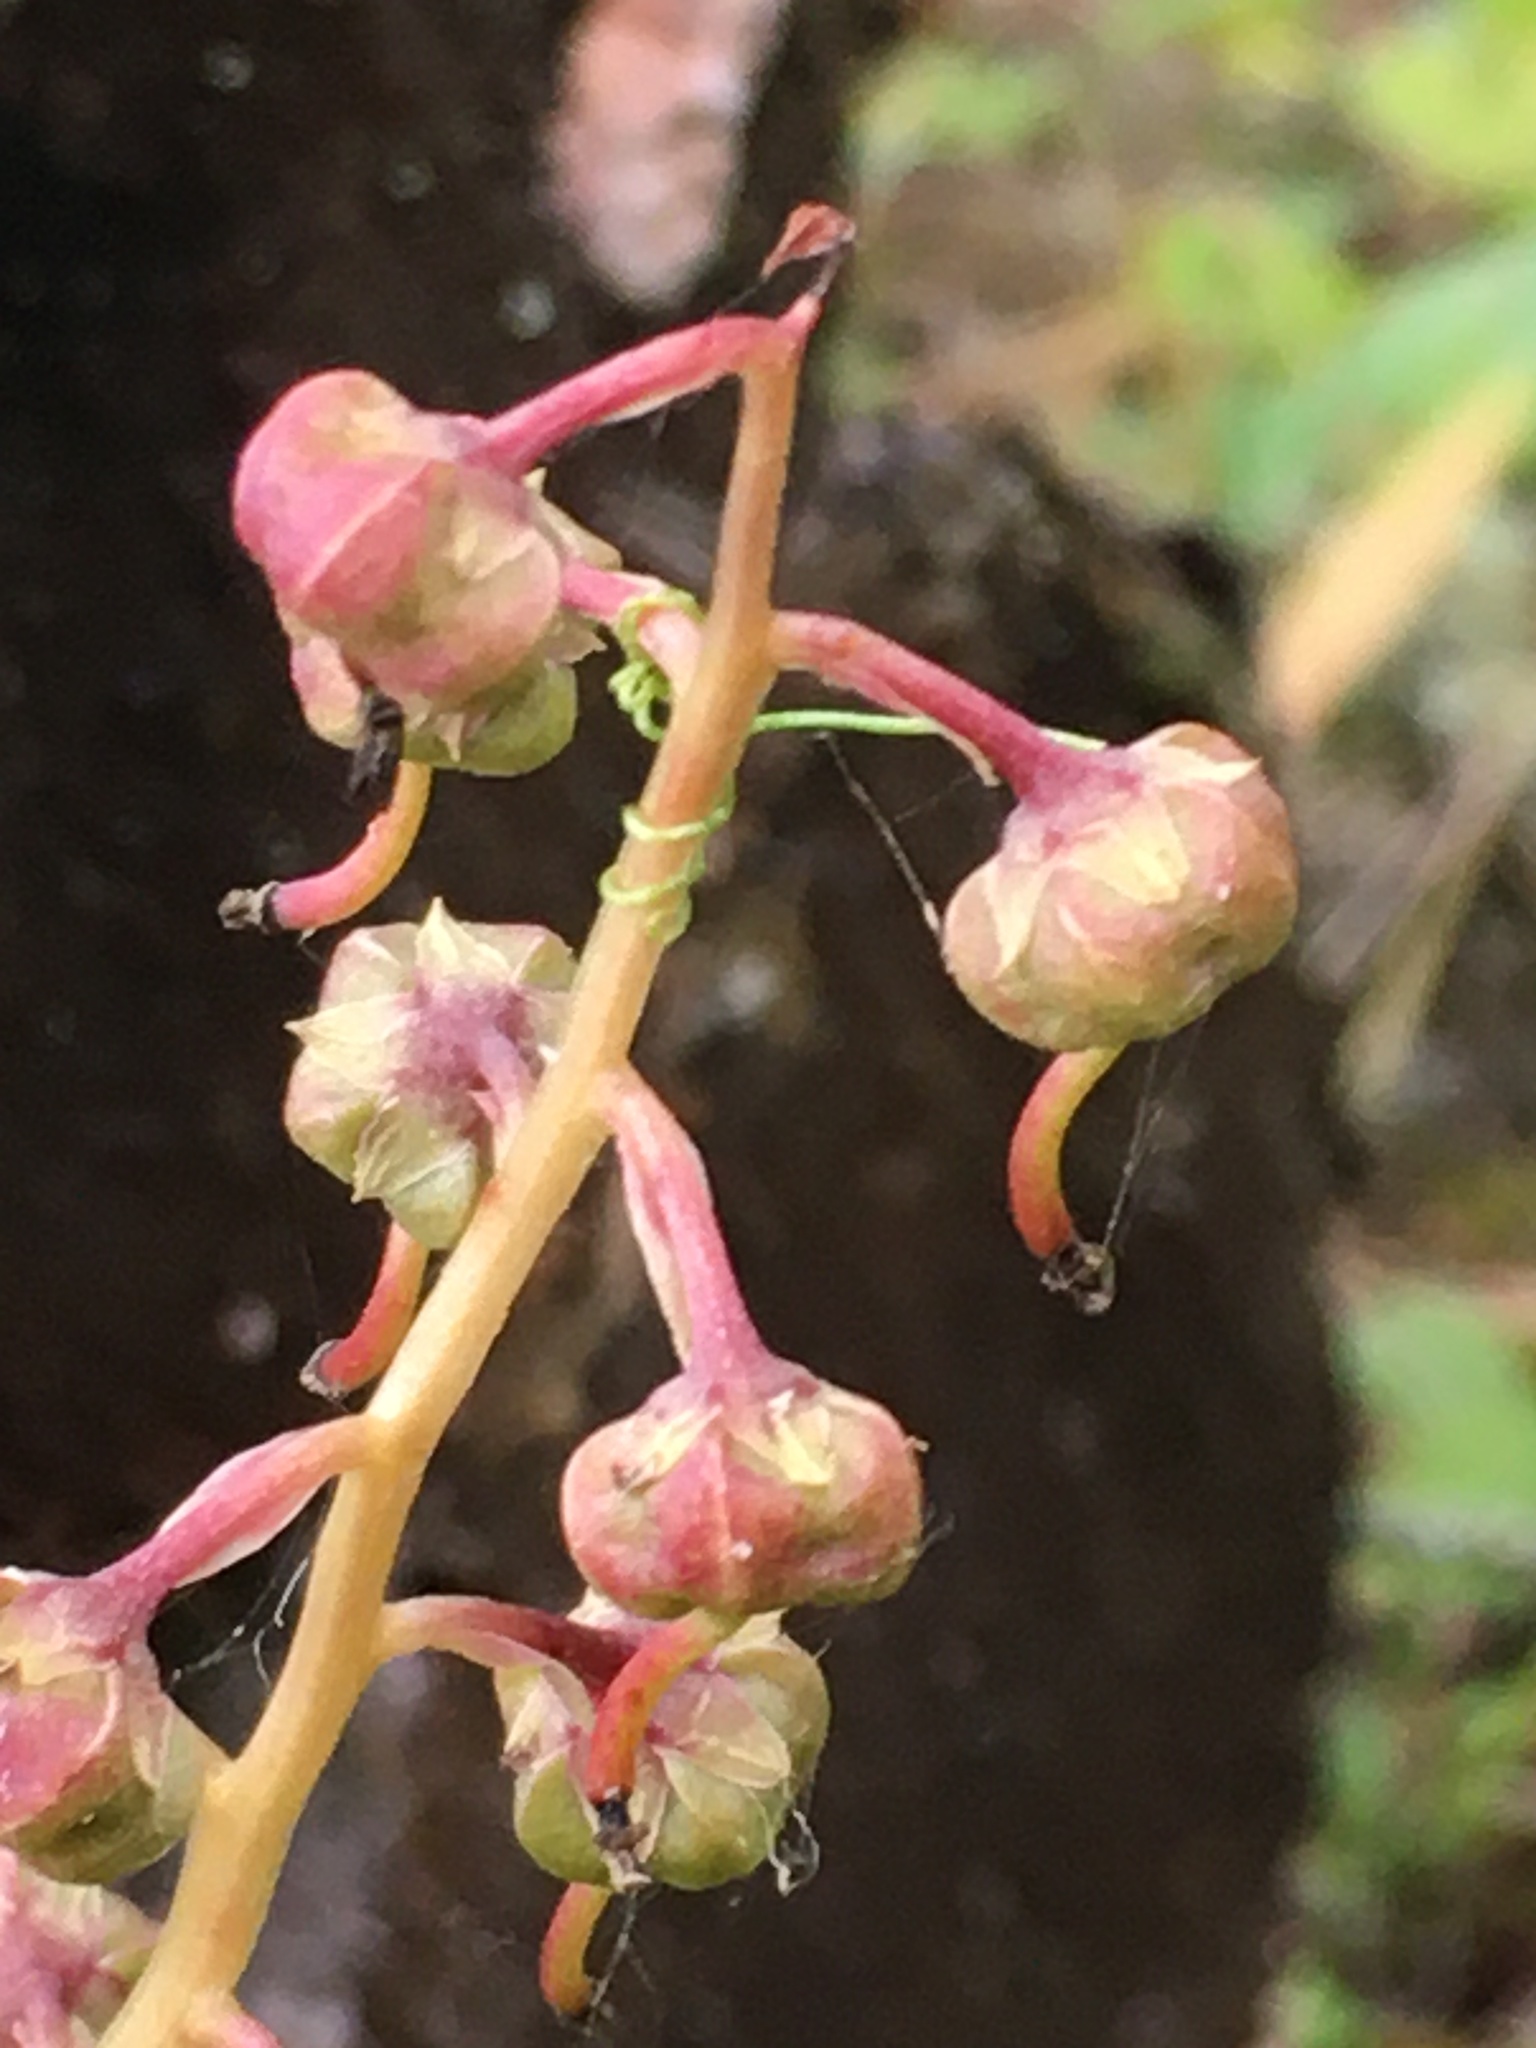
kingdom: Plantae
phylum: Tracheophyta
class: Magnoliopsida
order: Ericales
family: Ericaceae
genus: Pyrola
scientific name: Pyrola asarifolia
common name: Bog wintergreen
